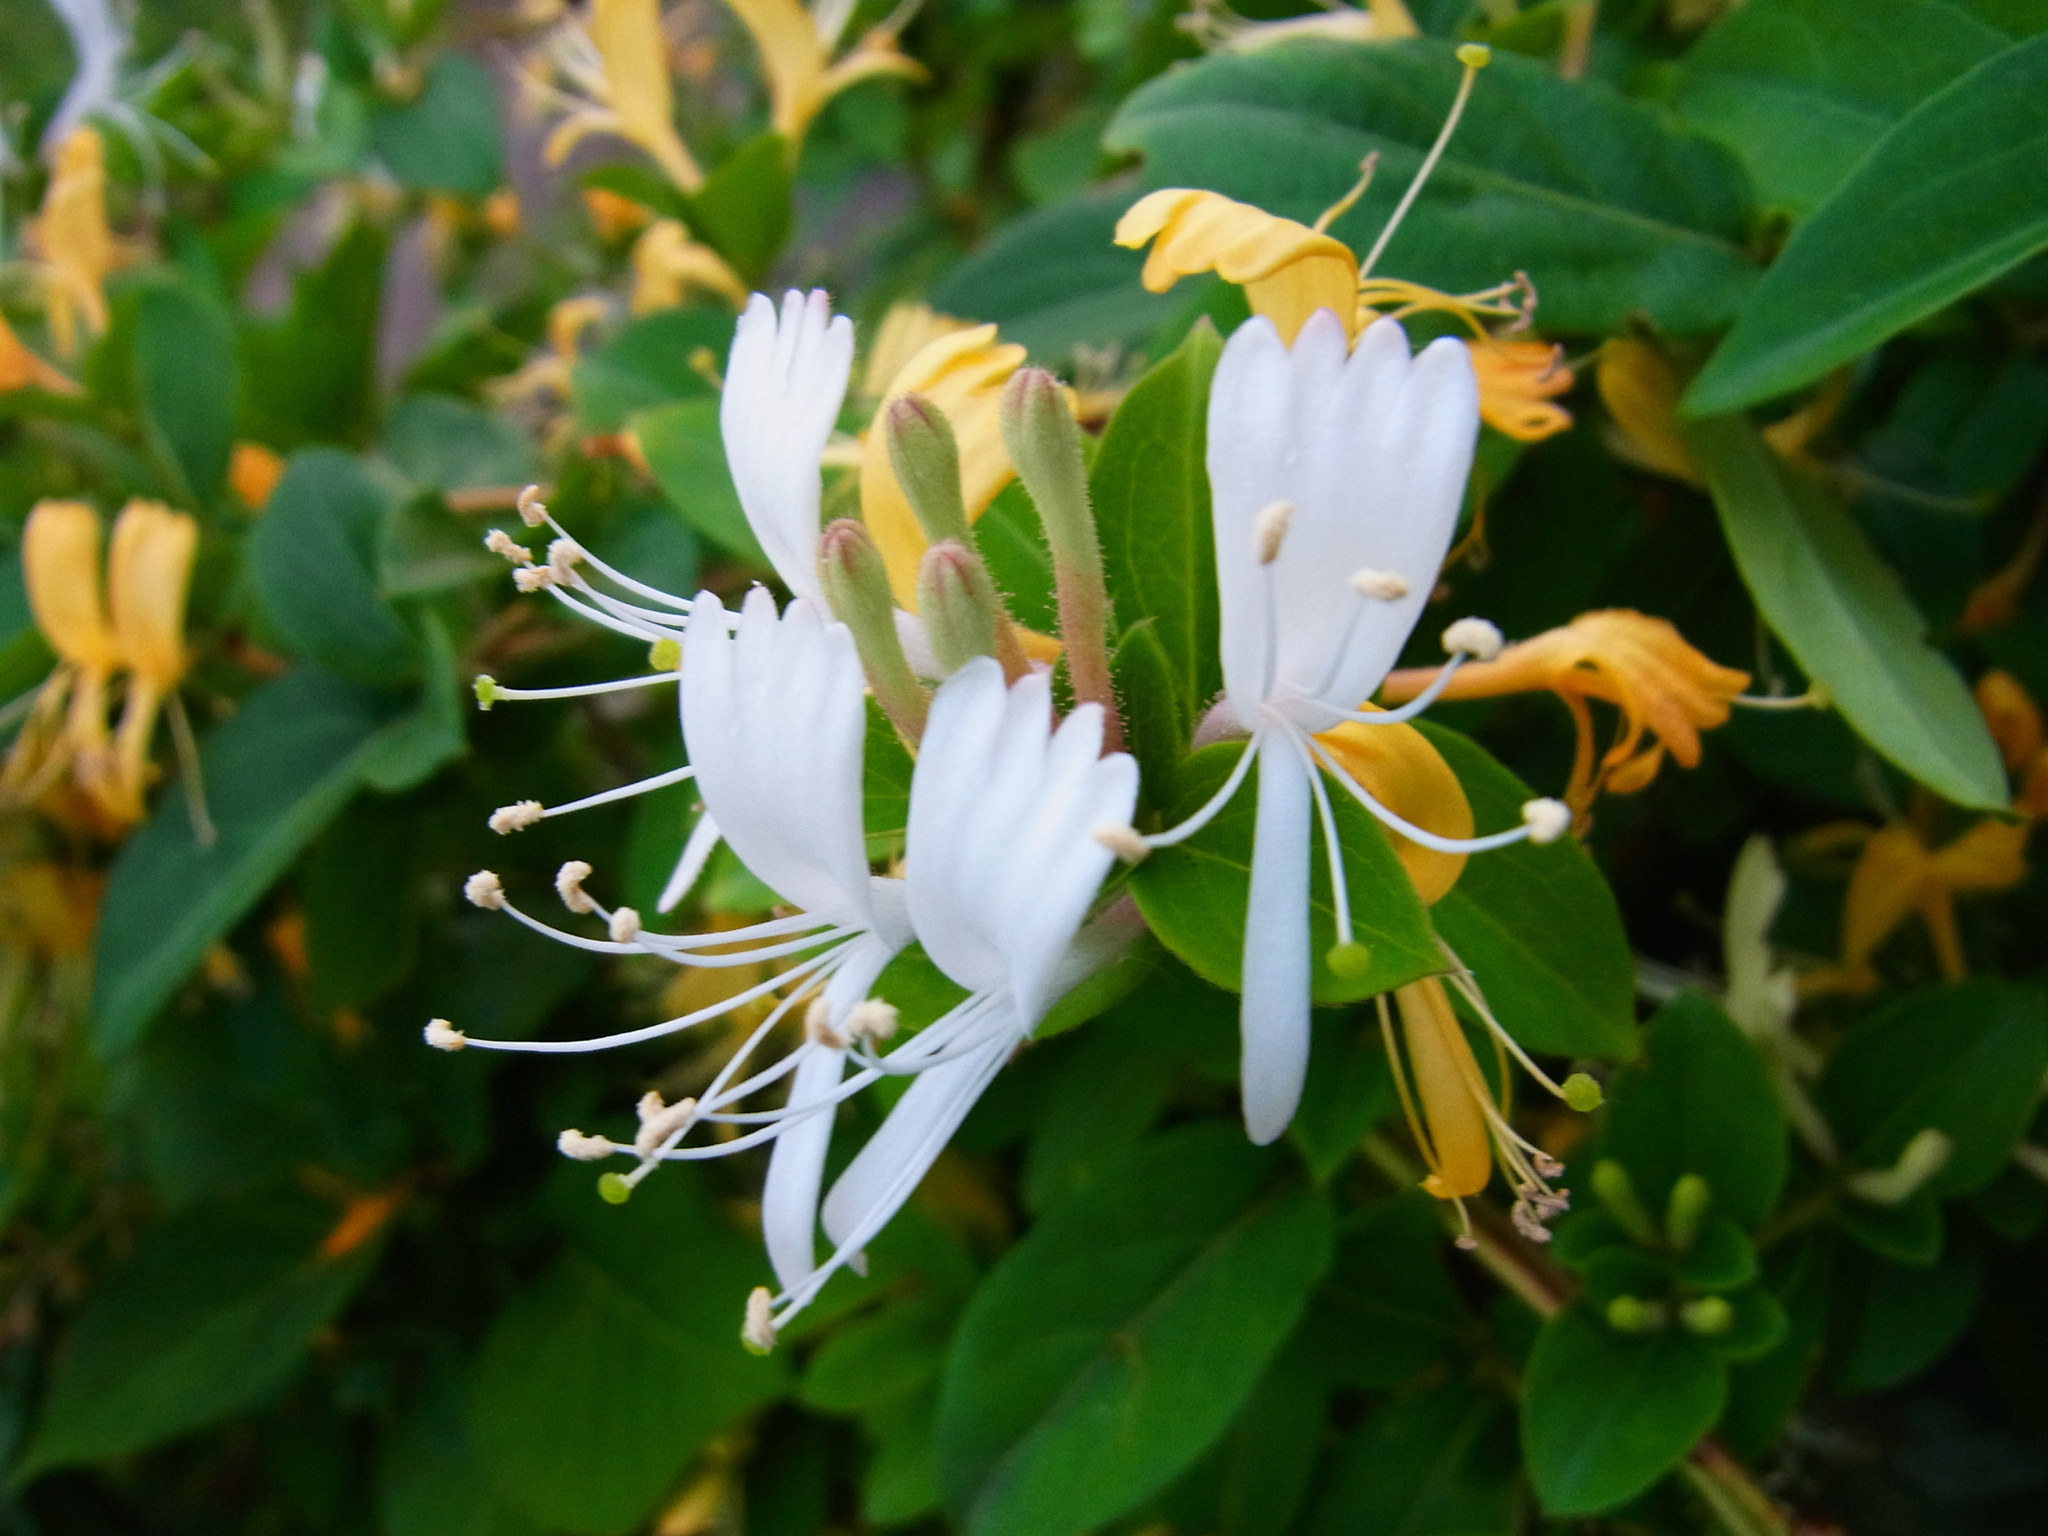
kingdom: Plantae
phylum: Tracheophyta
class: Magnoliopsida
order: Dipsacales
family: Caprifoliaceae
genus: Lonicera
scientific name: Lonicera japonica
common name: Japanese honeysuckle
